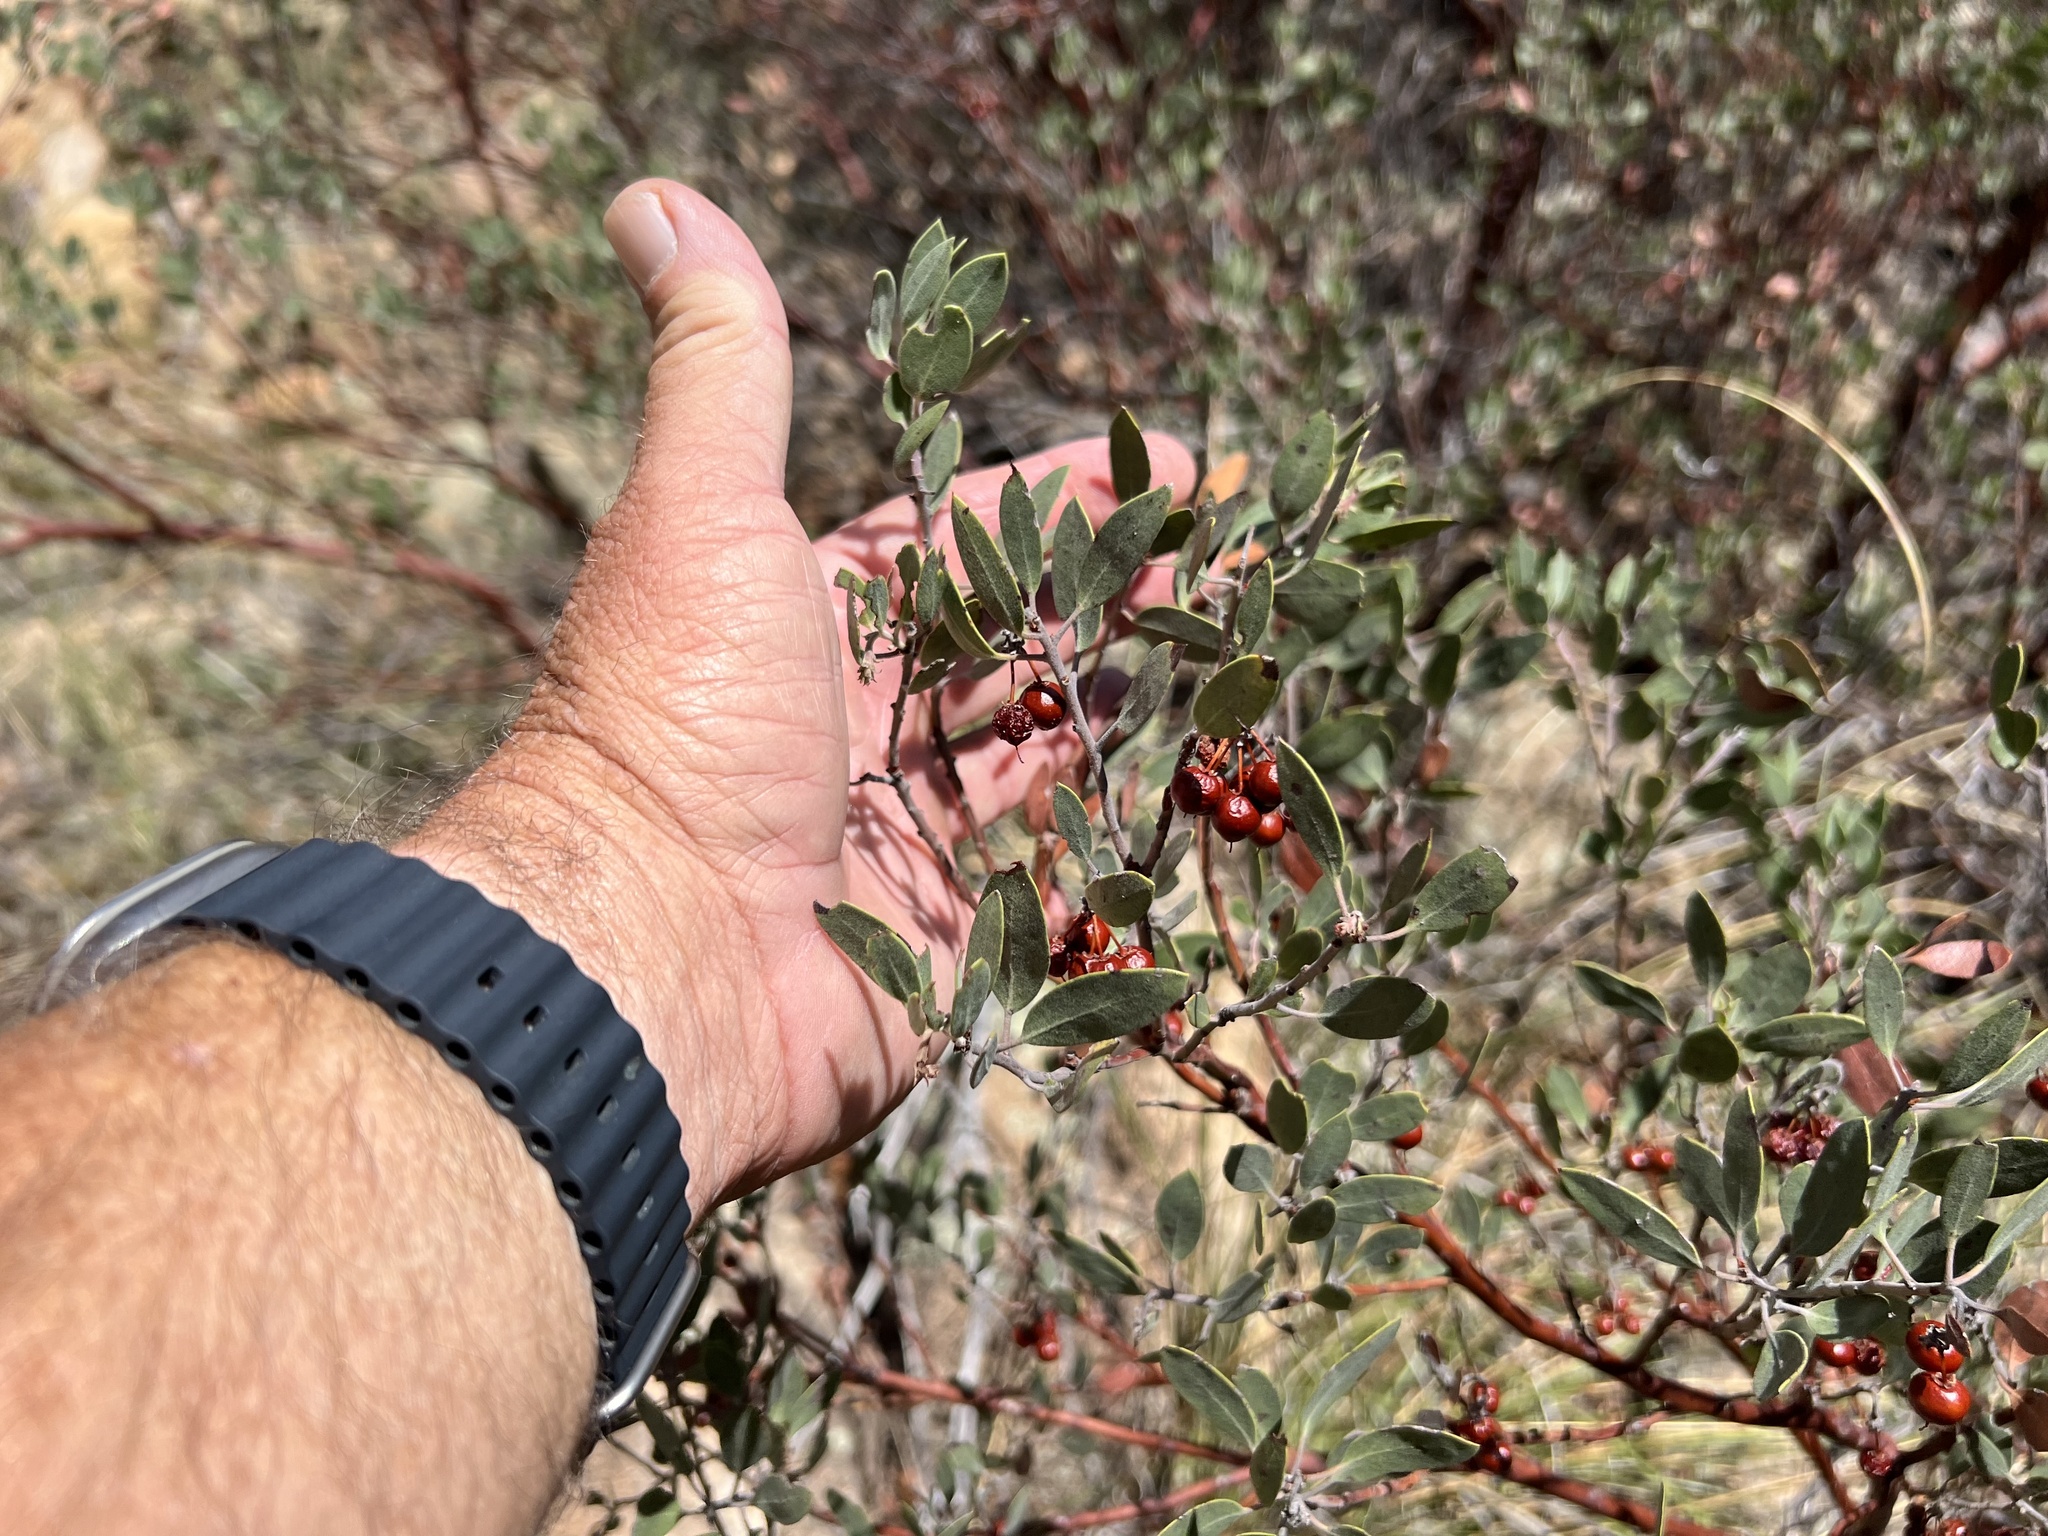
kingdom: Plantae
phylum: Tracheophyta
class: Magnoliopsida
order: Ericales
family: Ericaceae
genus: Arctostaphylos
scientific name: Arctostaphylos pungens
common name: Mexican manzanita
